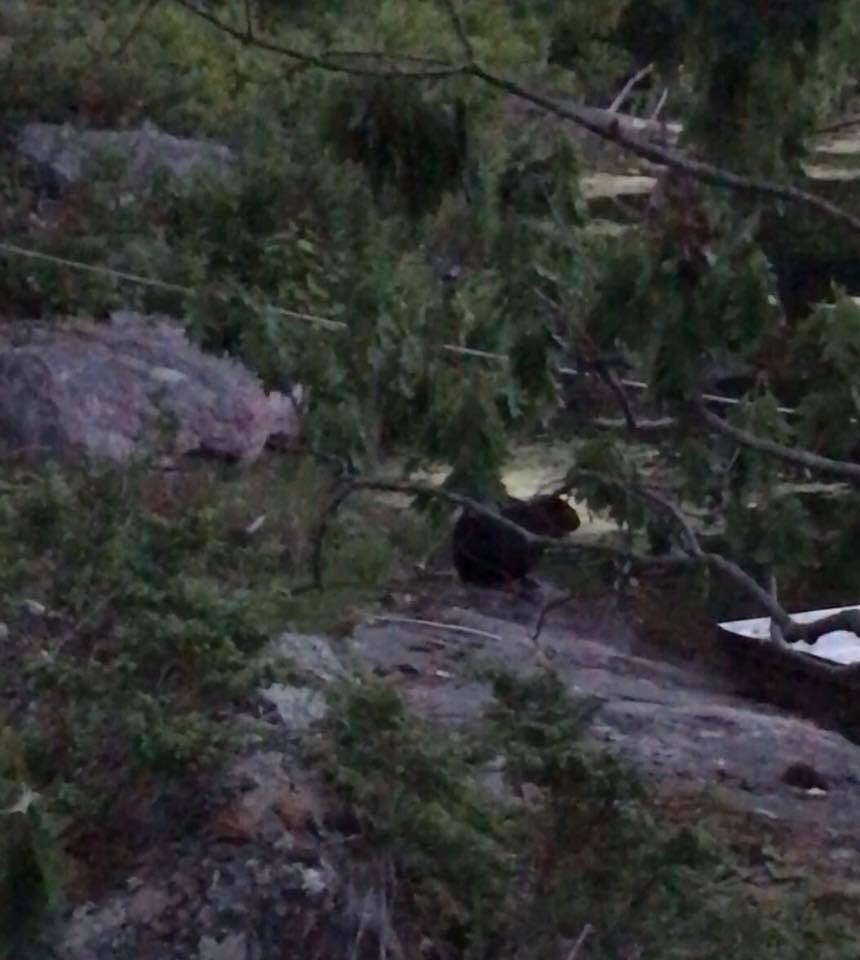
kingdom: Animalia
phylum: Chordata
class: Mammalia
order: Rodentia
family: Castoridae
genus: Castor
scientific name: Castor canadensis
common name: American beaver
